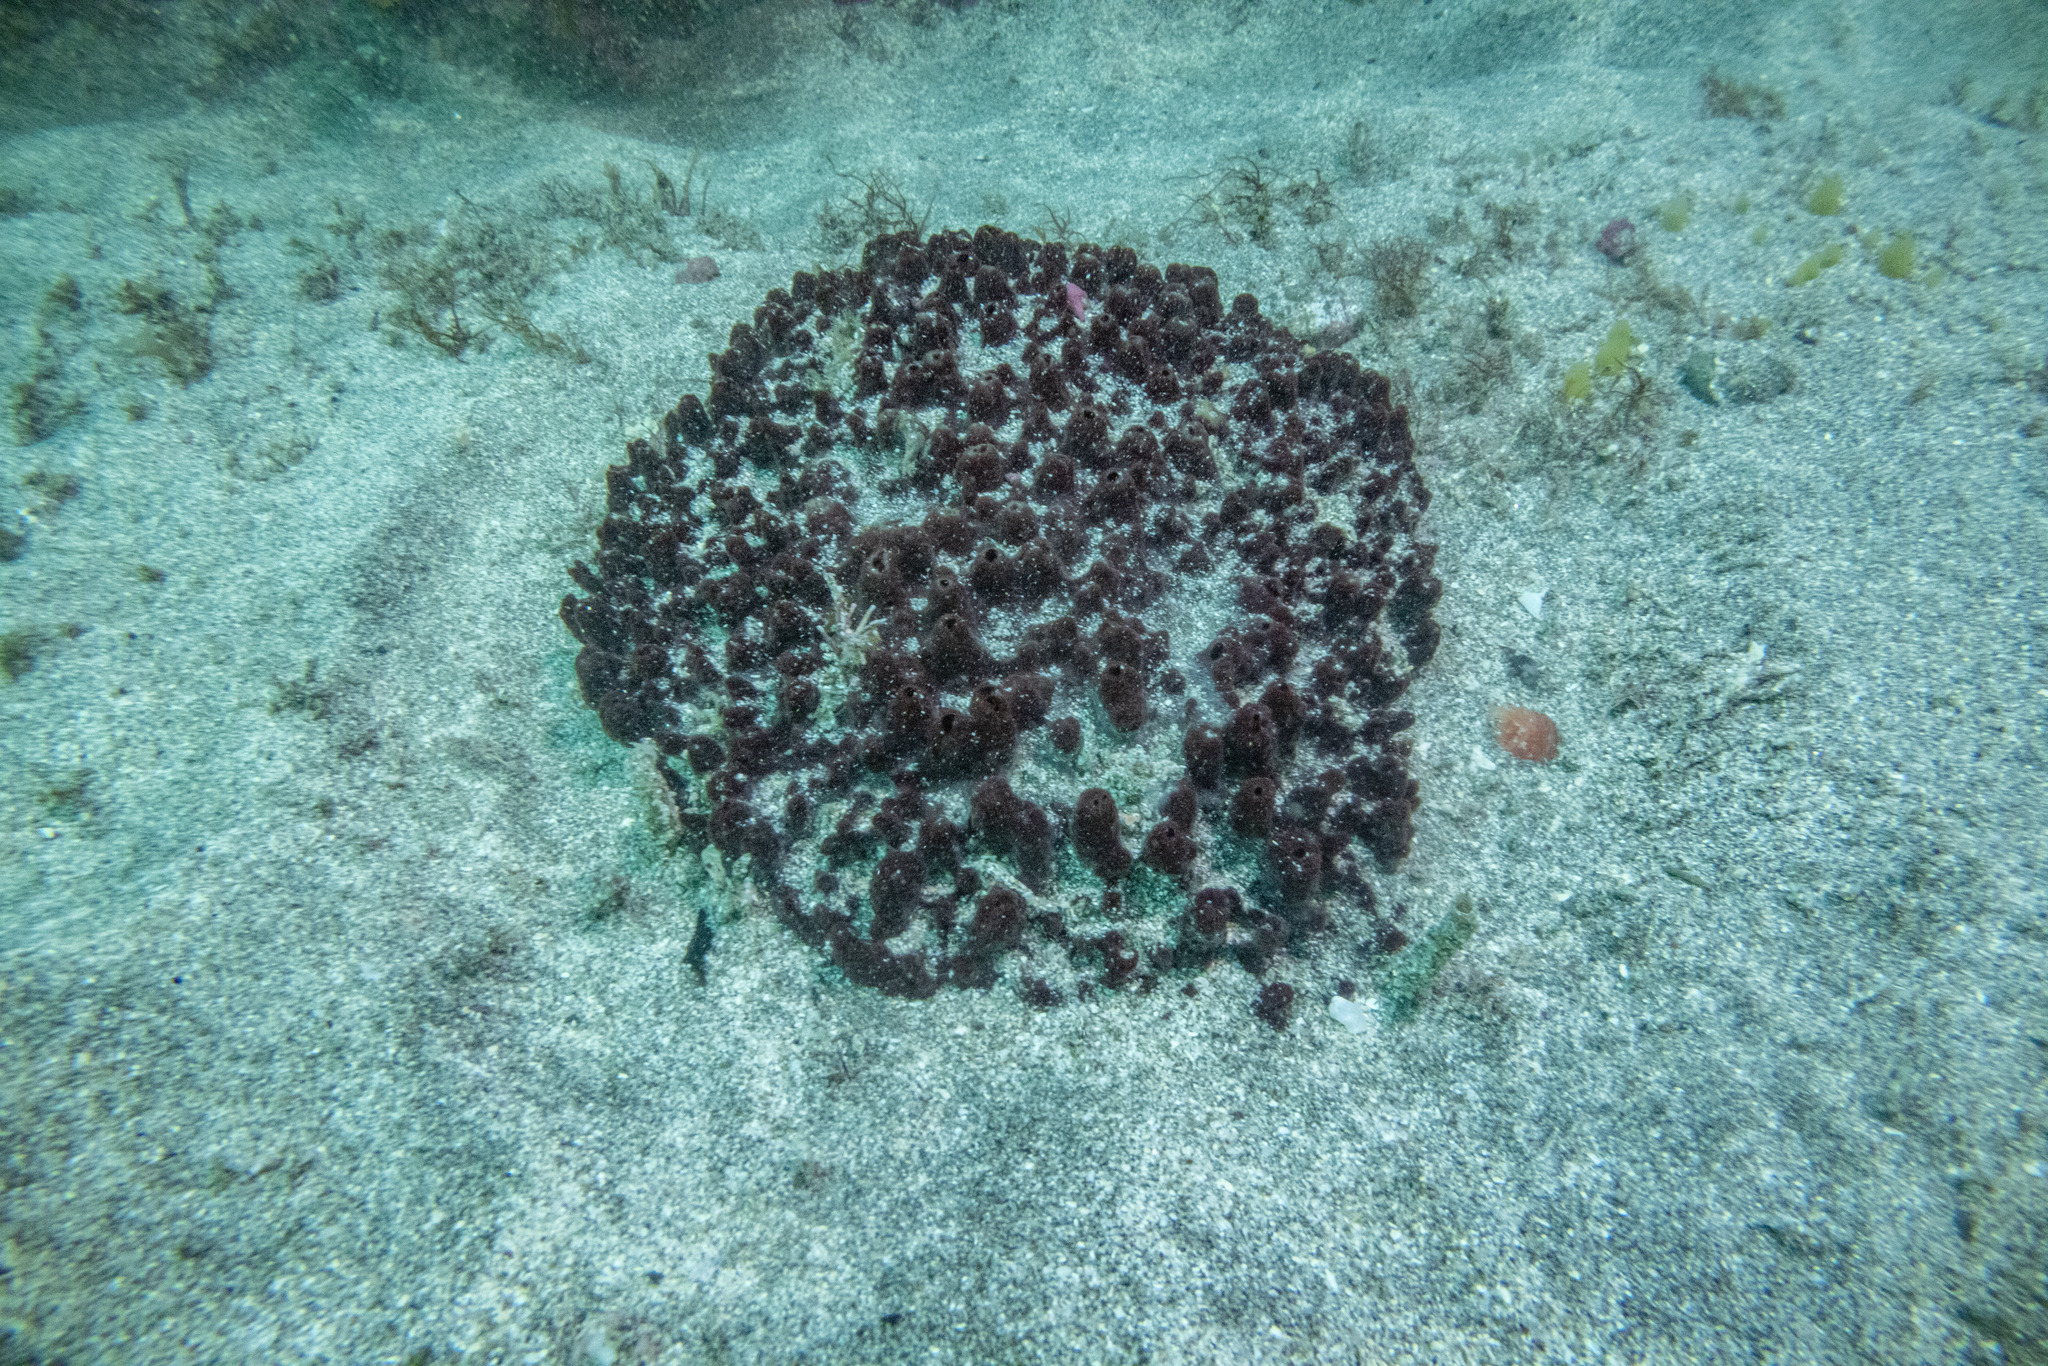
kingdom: Animalia
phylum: Porifera
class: Demospongiae
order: Biemnida
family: Biemnidae
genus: Biemna
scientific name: Biemna rufescens
